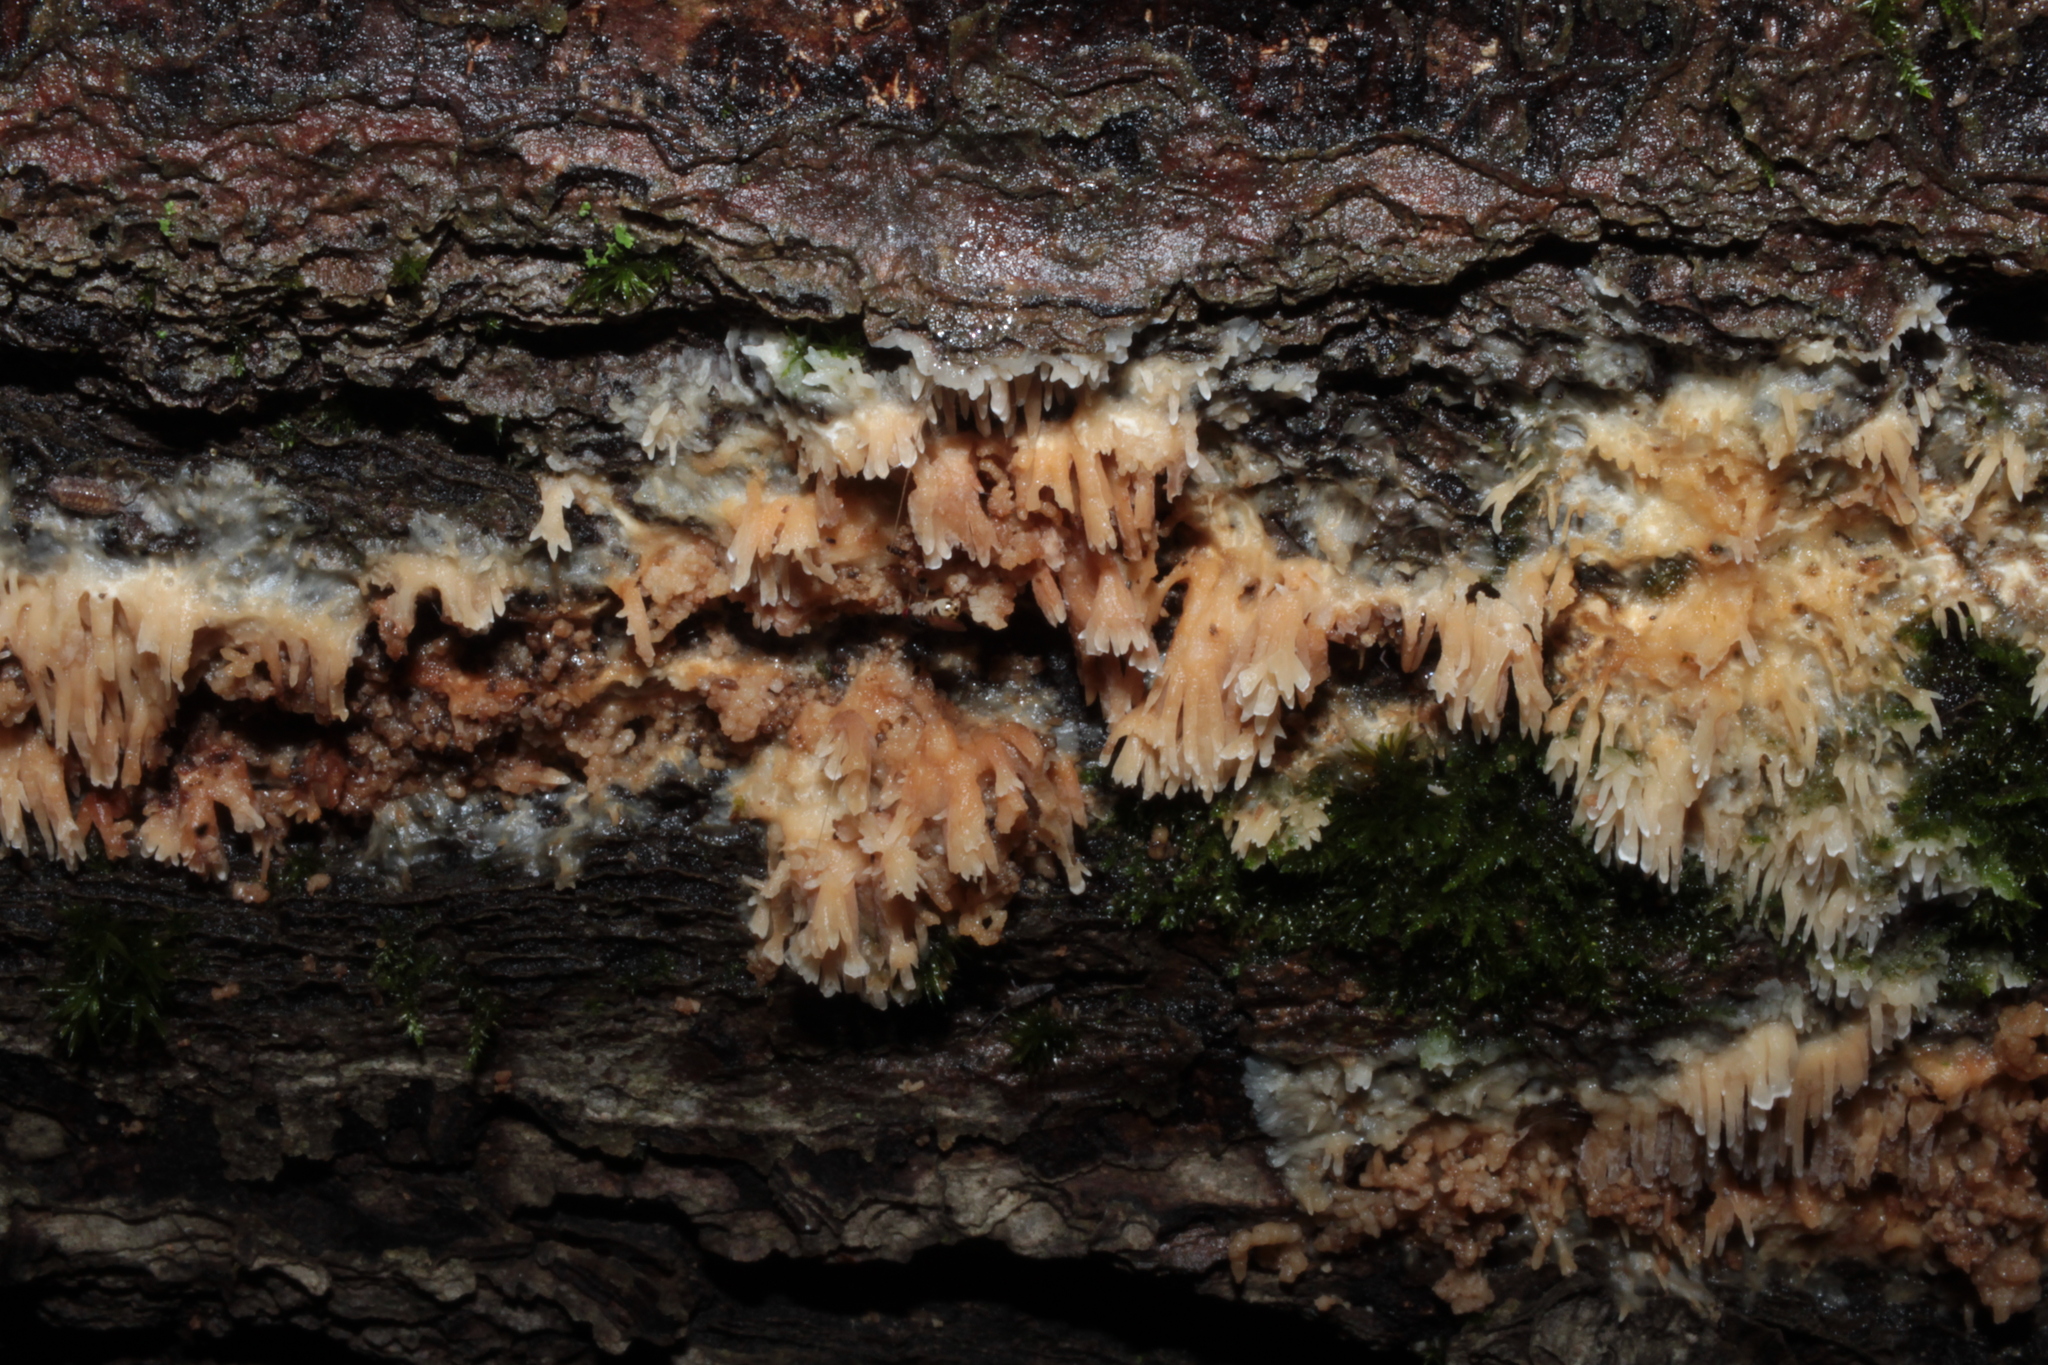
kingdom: Fungi
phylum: Basidiomycota
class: Agaricomycetes
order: Agaricales
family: Radulomycetaceae
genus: Radulomyces
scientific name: Radulomyces copelandii
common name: Asian beauty
